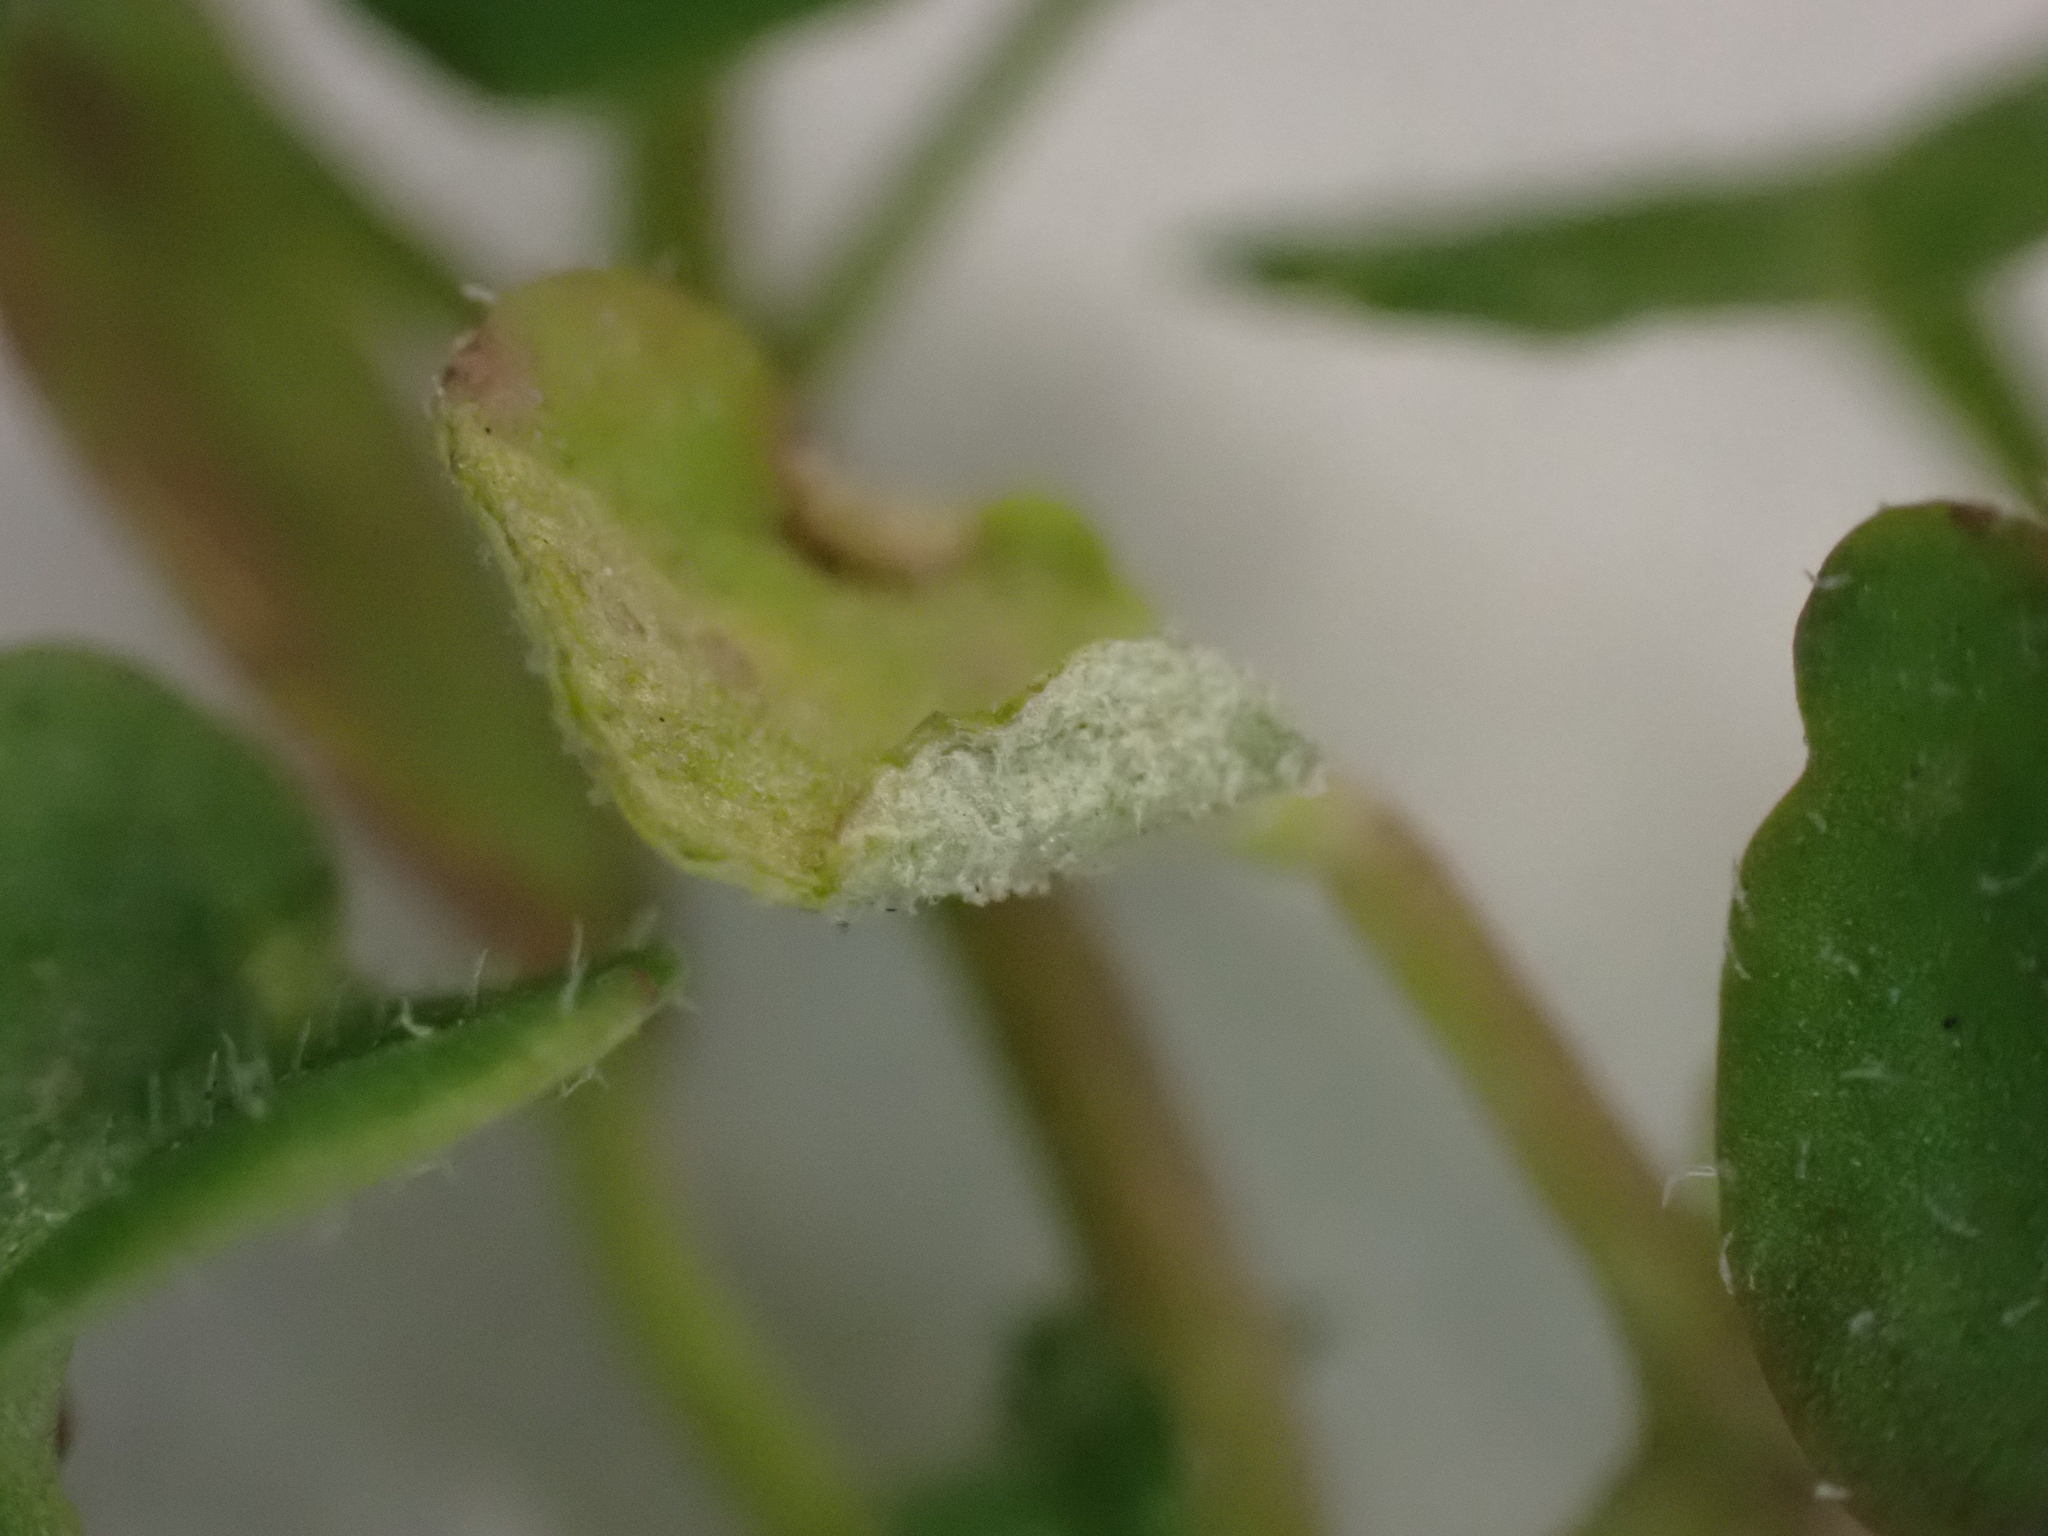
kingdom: Chromista
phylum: Oomycota
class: Peronosporea
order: Peronosporales
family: Peronosporaceae
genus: Peronospora
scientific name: Peronospora arvensis
